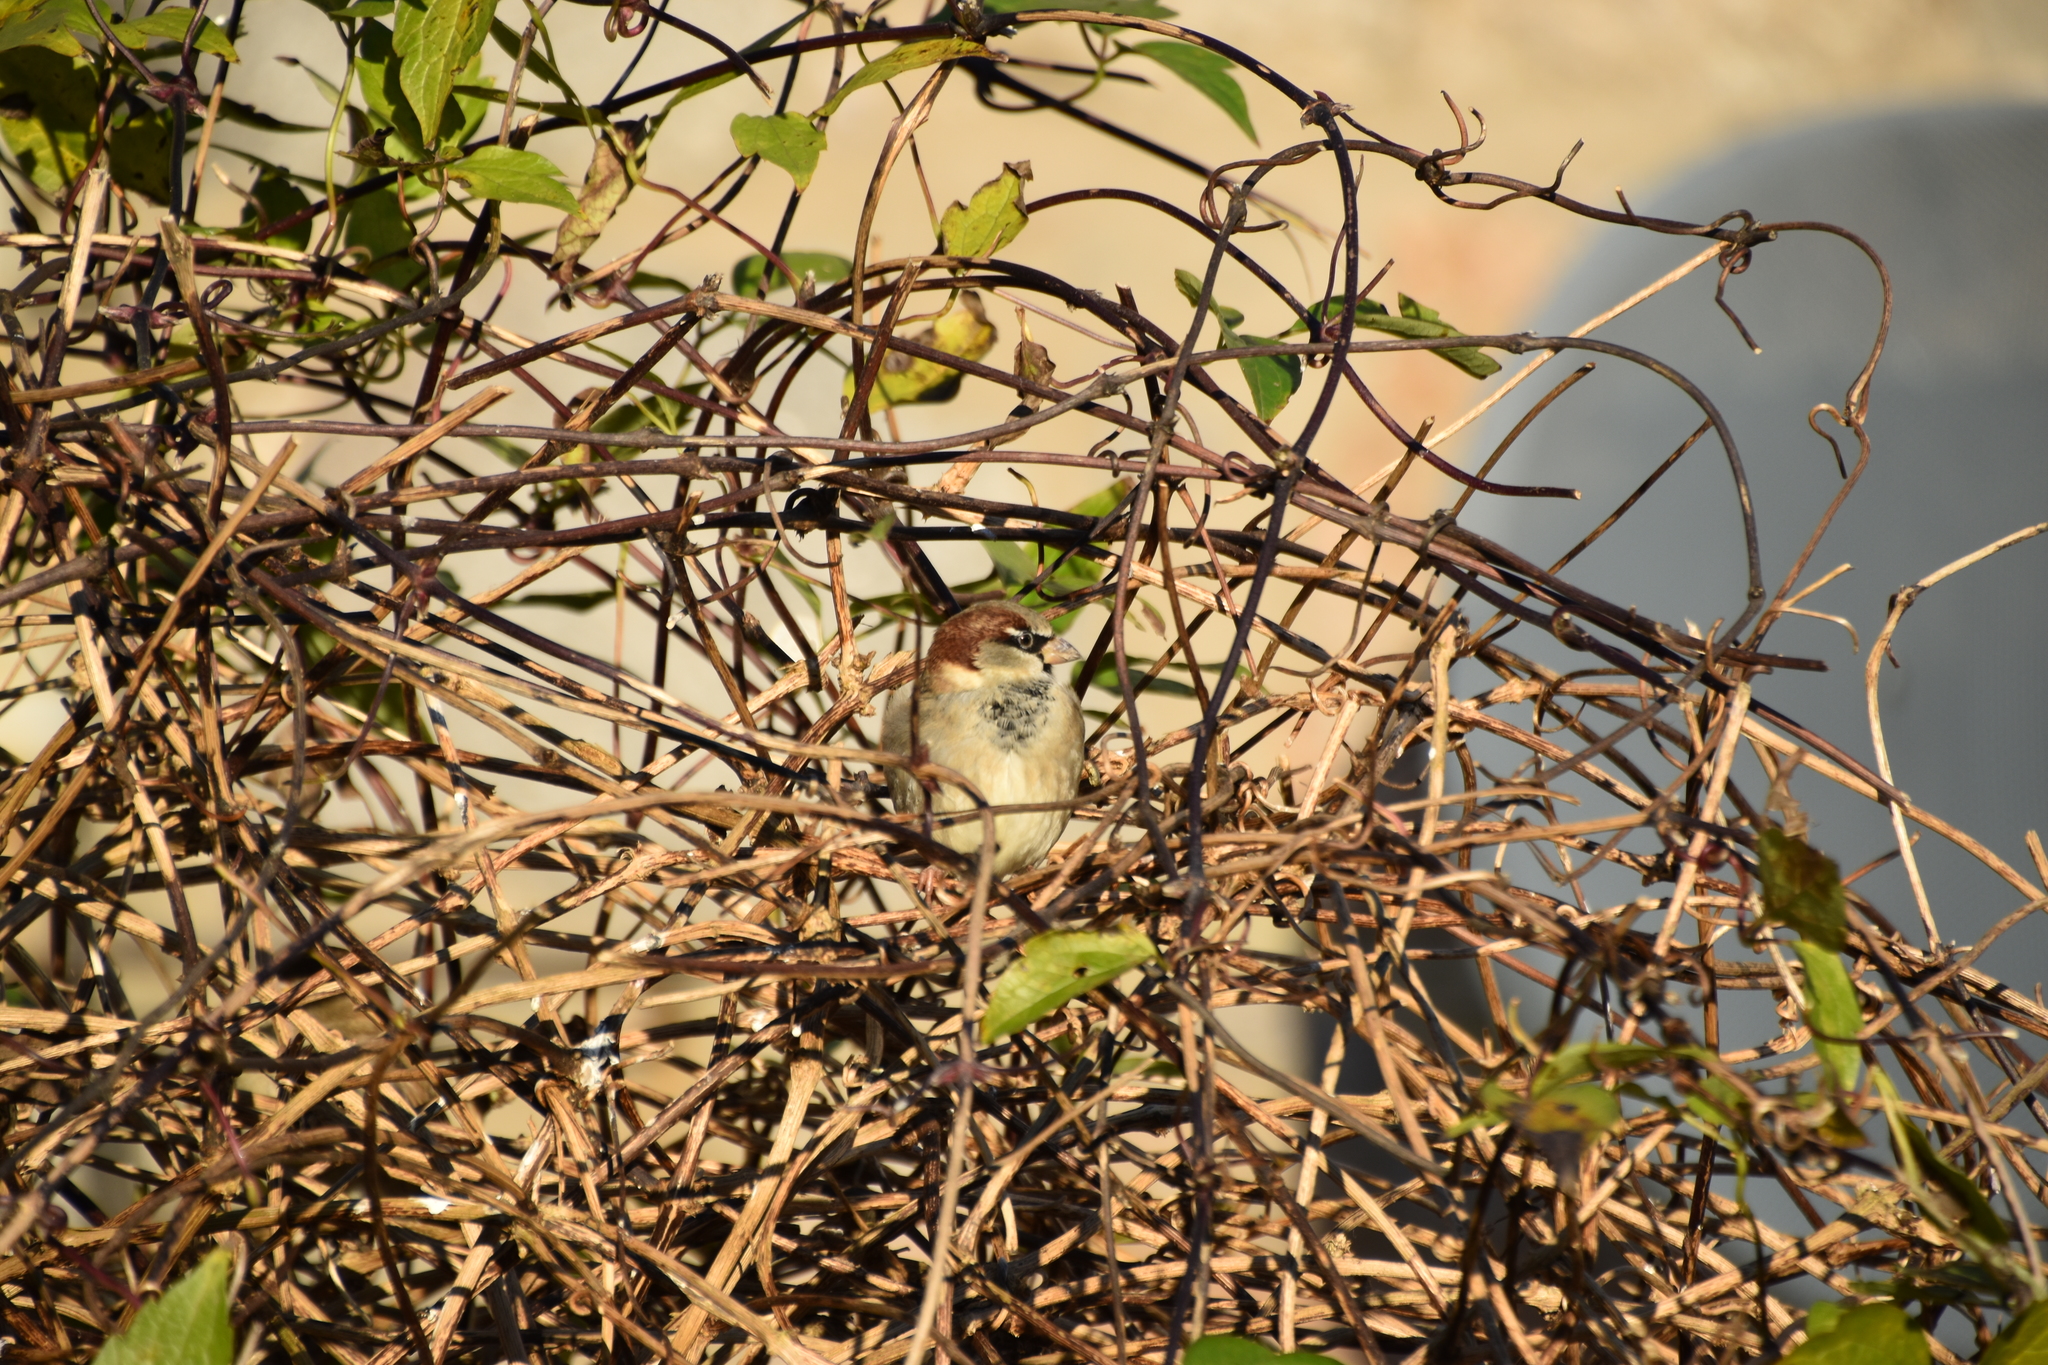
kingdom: Animalia
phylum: Chordata
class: Aves
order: Passeriformes
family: Passeridae
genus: Passer
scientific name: Passer domesticus
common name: House sparrow
